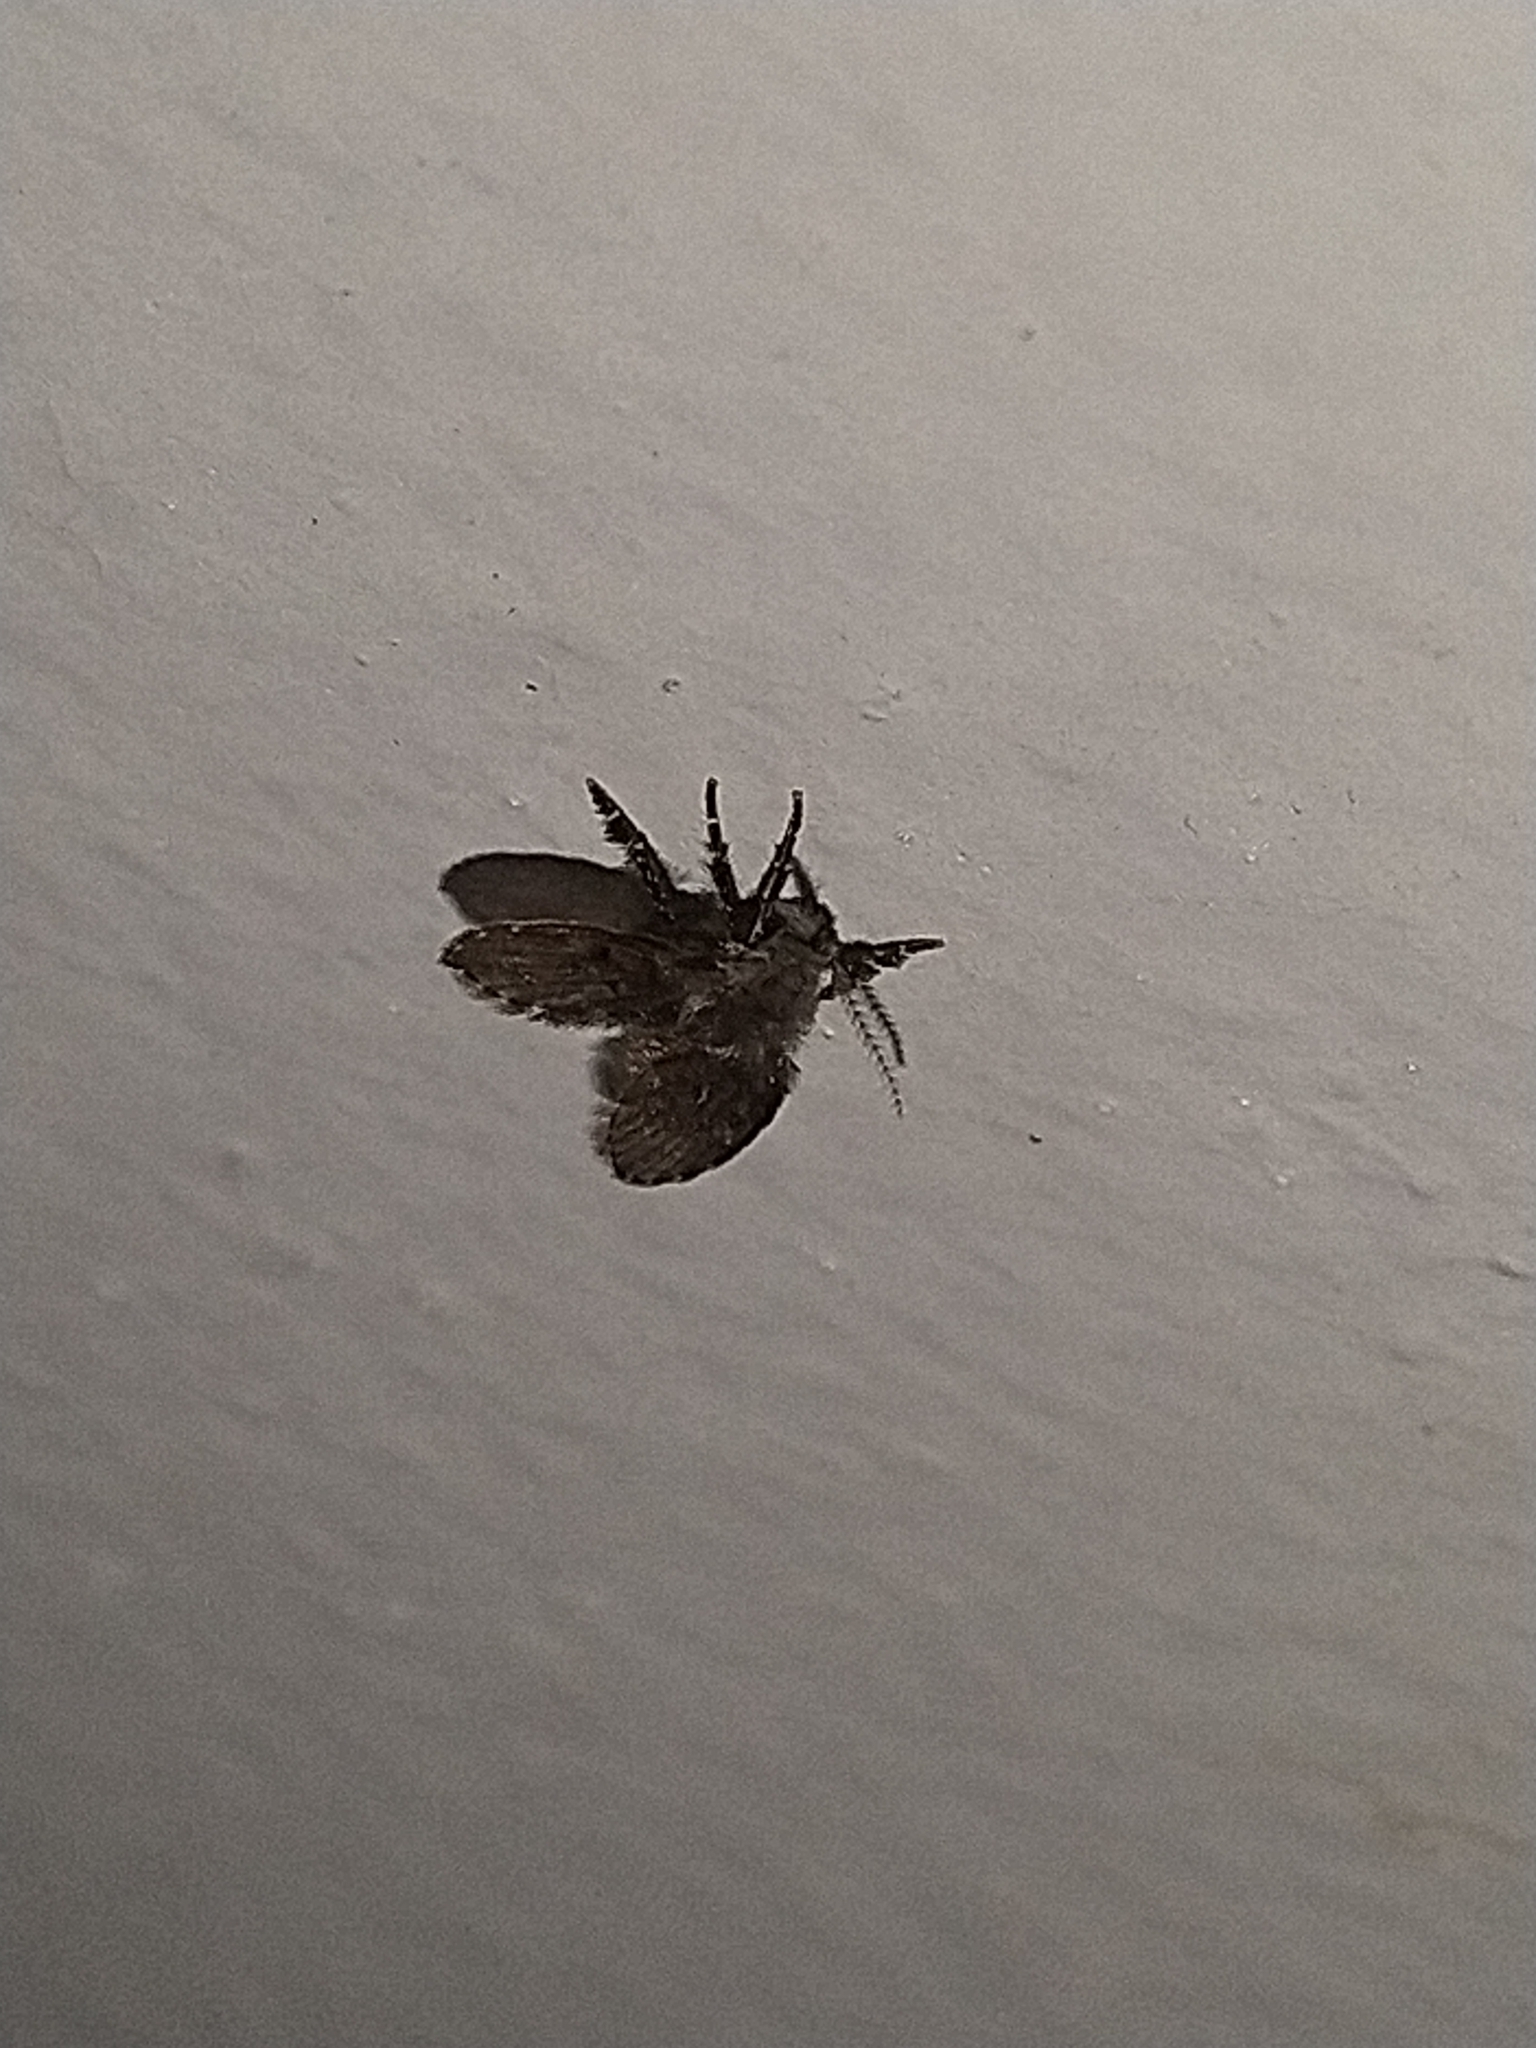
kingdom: Animalia
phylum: Arthropoda
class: Insecta
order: Diptera
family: Psychodidae
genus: Clogmia
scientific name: Clogmia albipunctatus
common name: White-spotted moth fly
